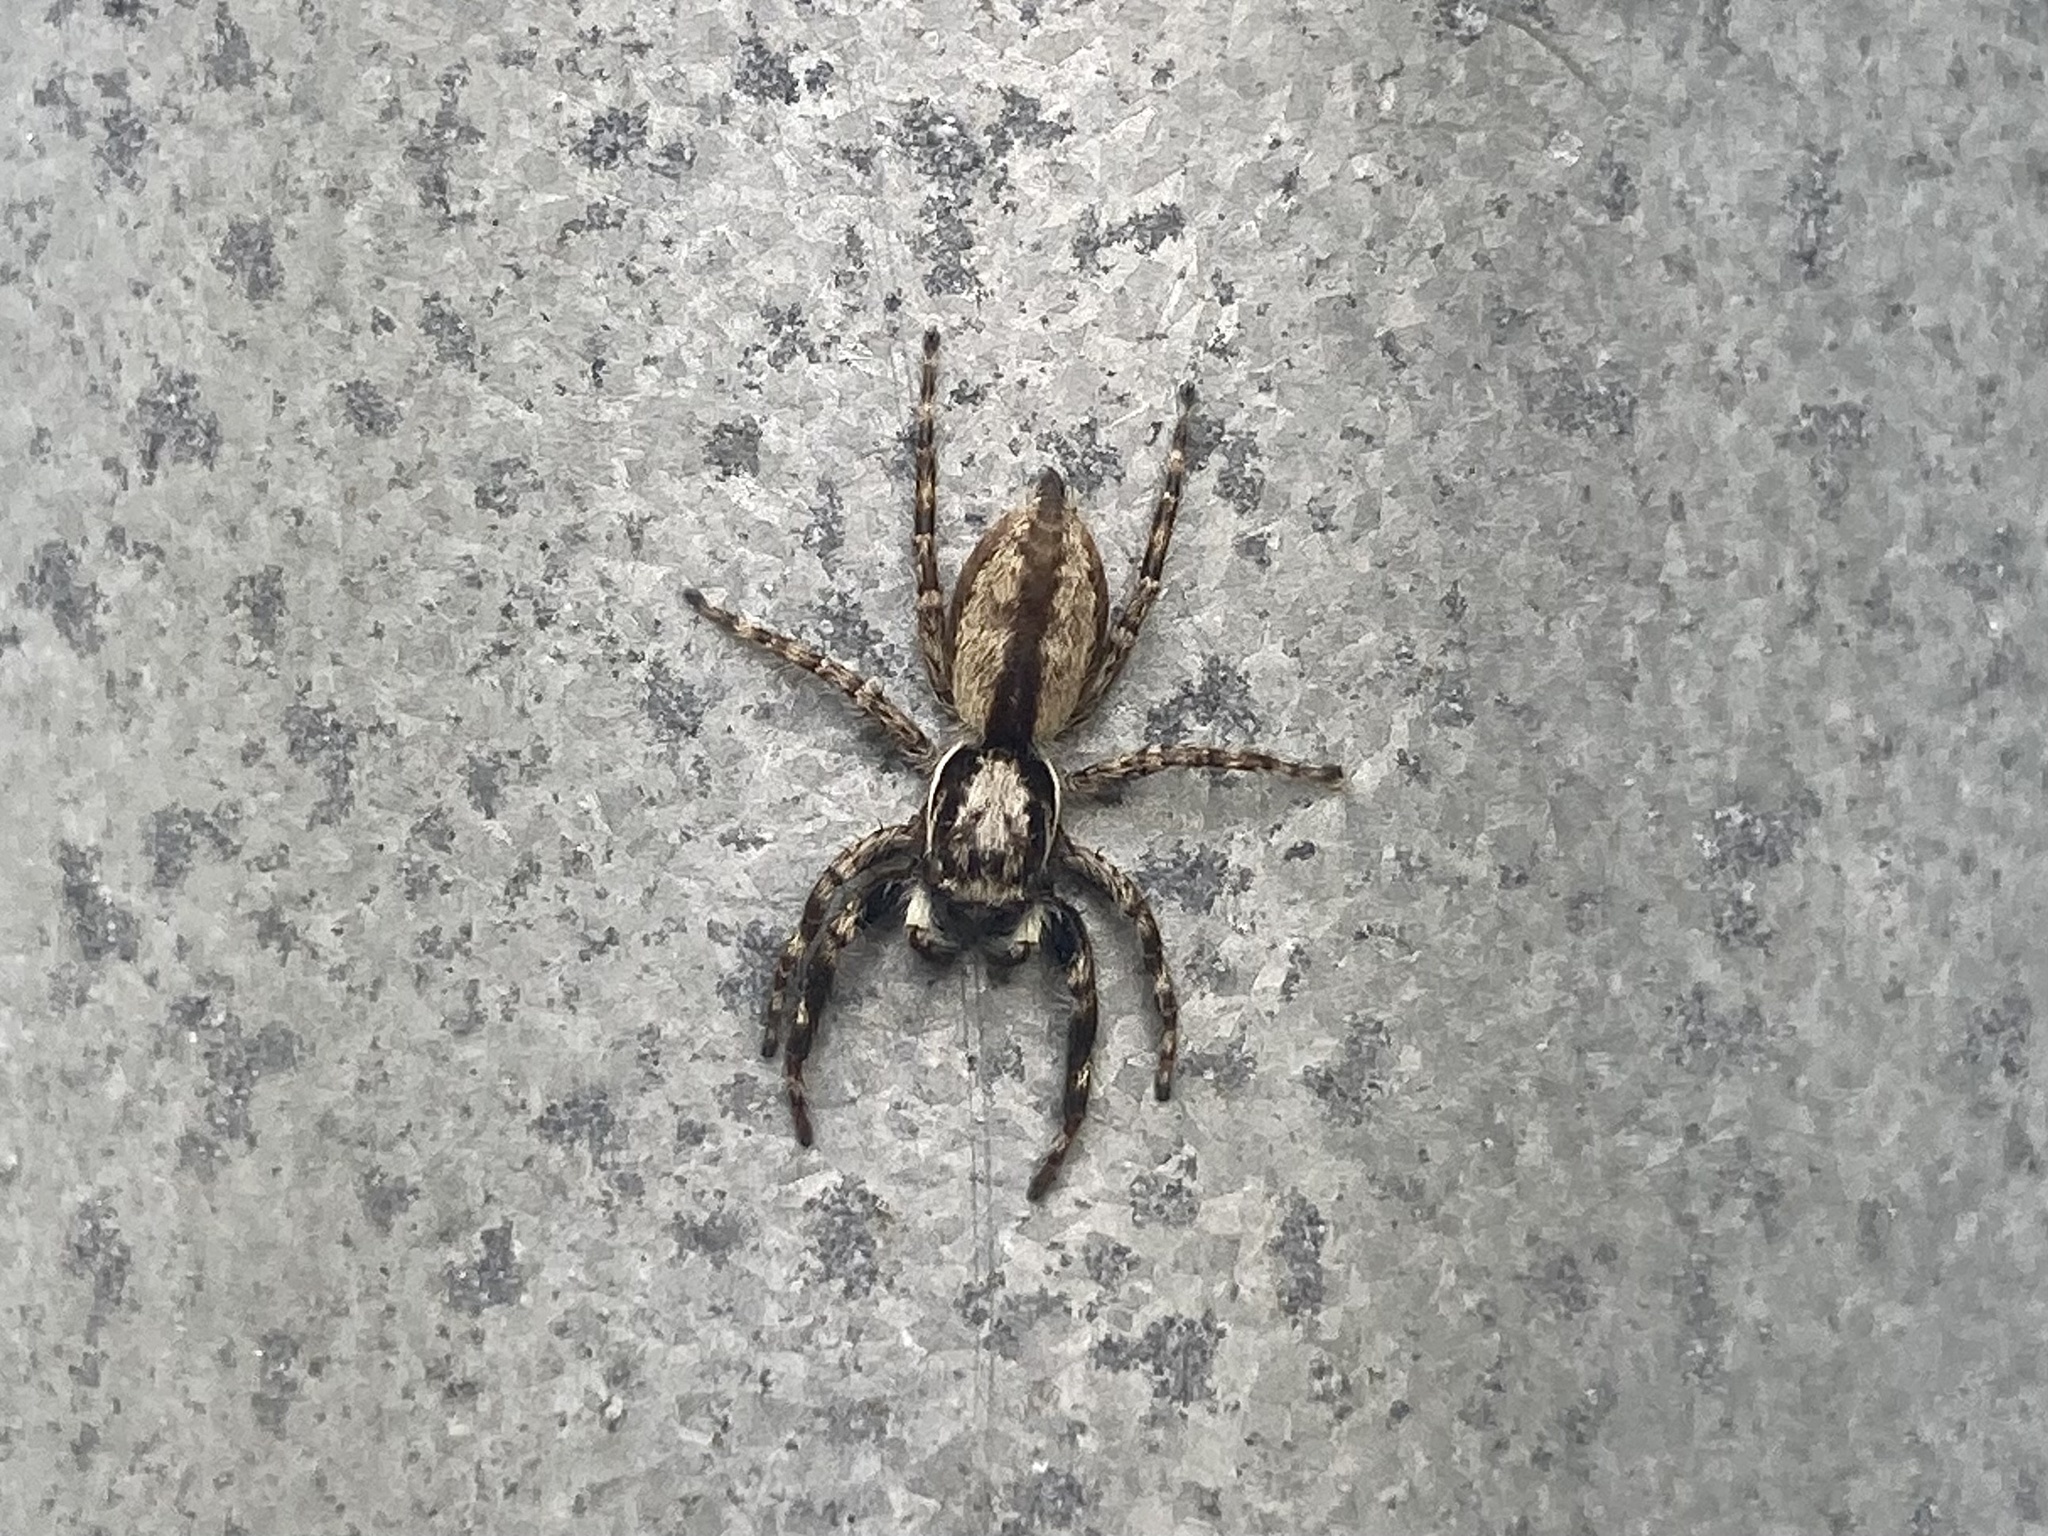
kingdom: Animalia
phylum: Arthropoda
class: Arachnida
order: Araneae
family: Salticidae
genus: Menemerus
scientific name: Menemerus bivittatus
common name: Gray wall jumper
